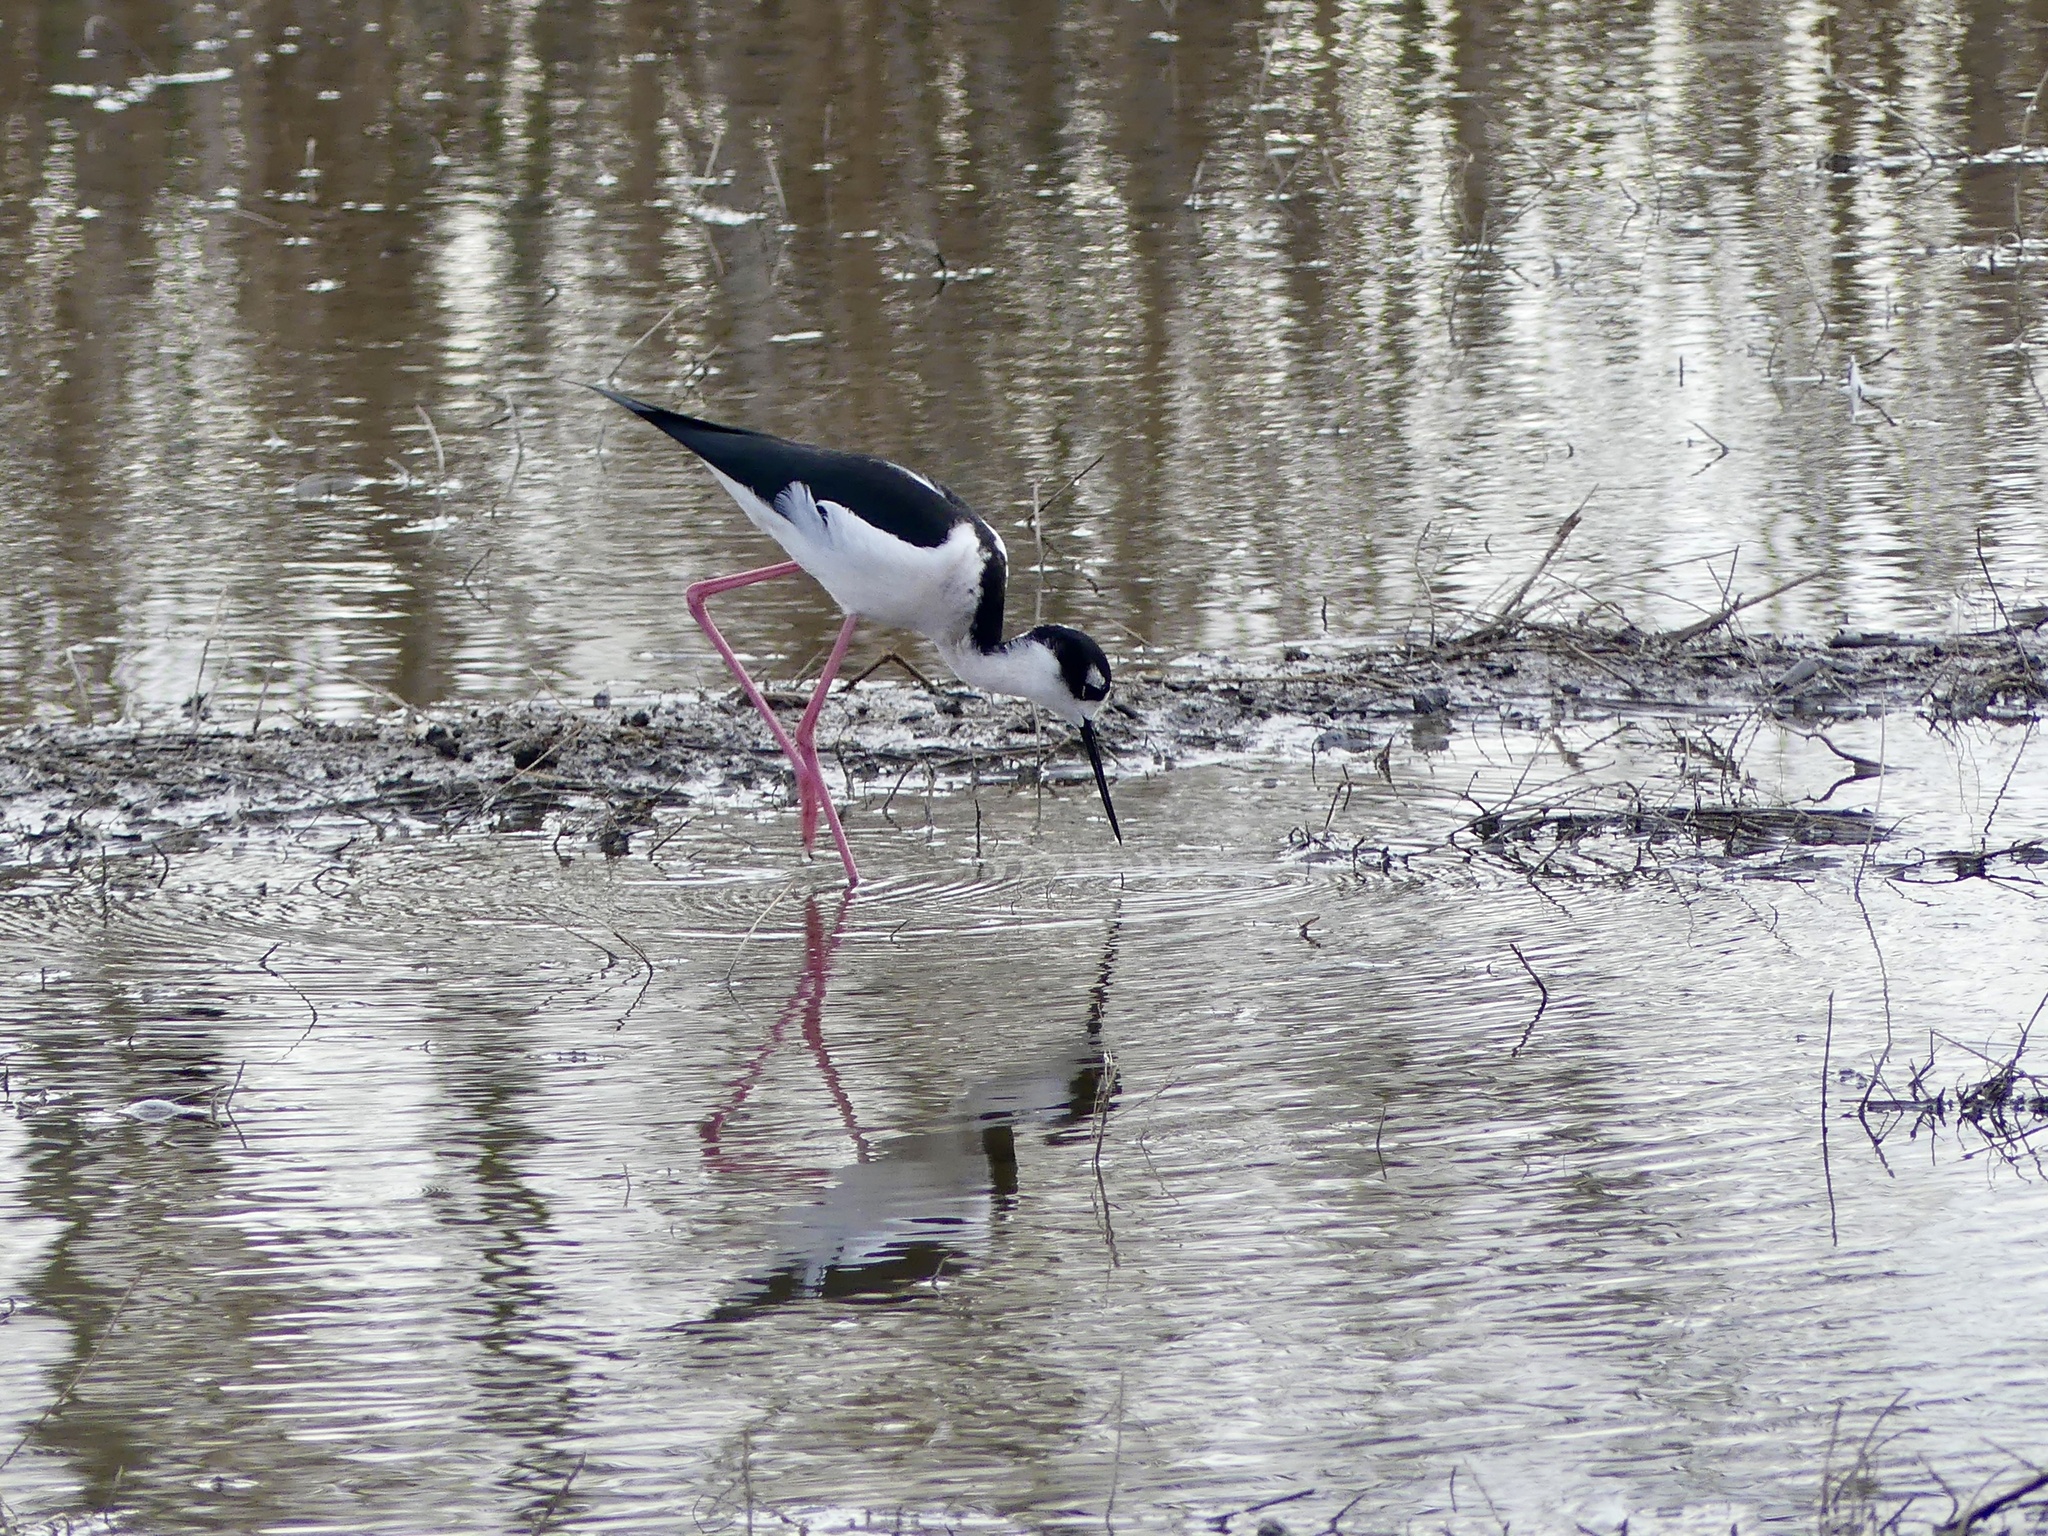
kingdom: Animalia
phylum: Chordata
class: Aves
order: Charadriiformes
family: Recurvirostridae
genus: Himantopus
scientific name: Himantopus mexicanus
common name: Black-necked stilt
